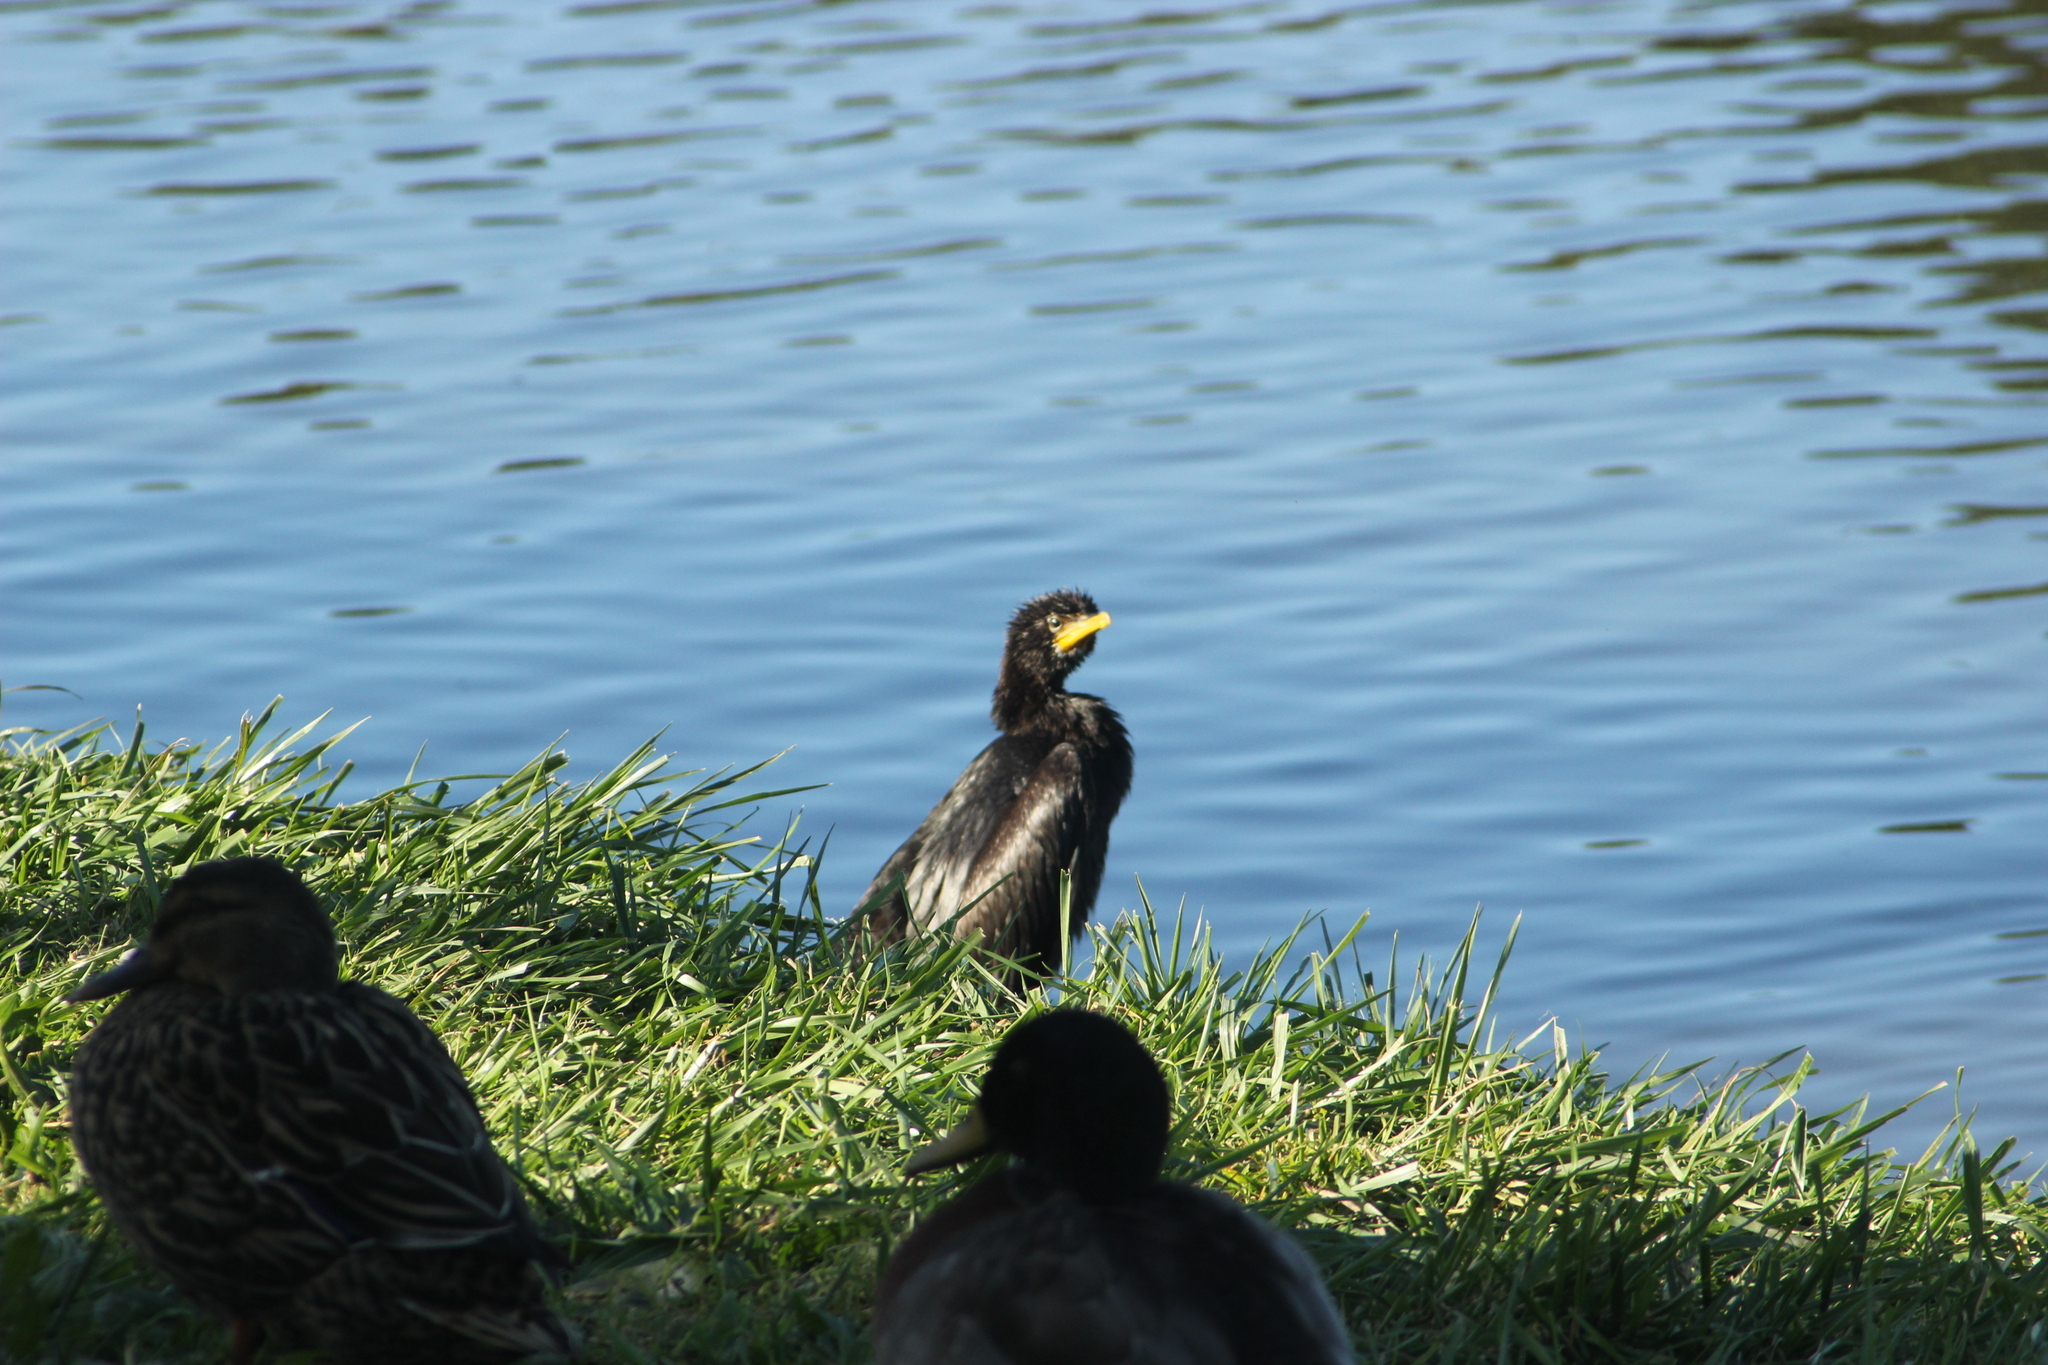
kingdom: Animalia
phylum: Chordata
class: Aves
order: Suliformes
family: Phalacrocoracidae
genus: Microcarbo
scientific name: Microcarbo melanoleucos
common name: Little pied cormorant
